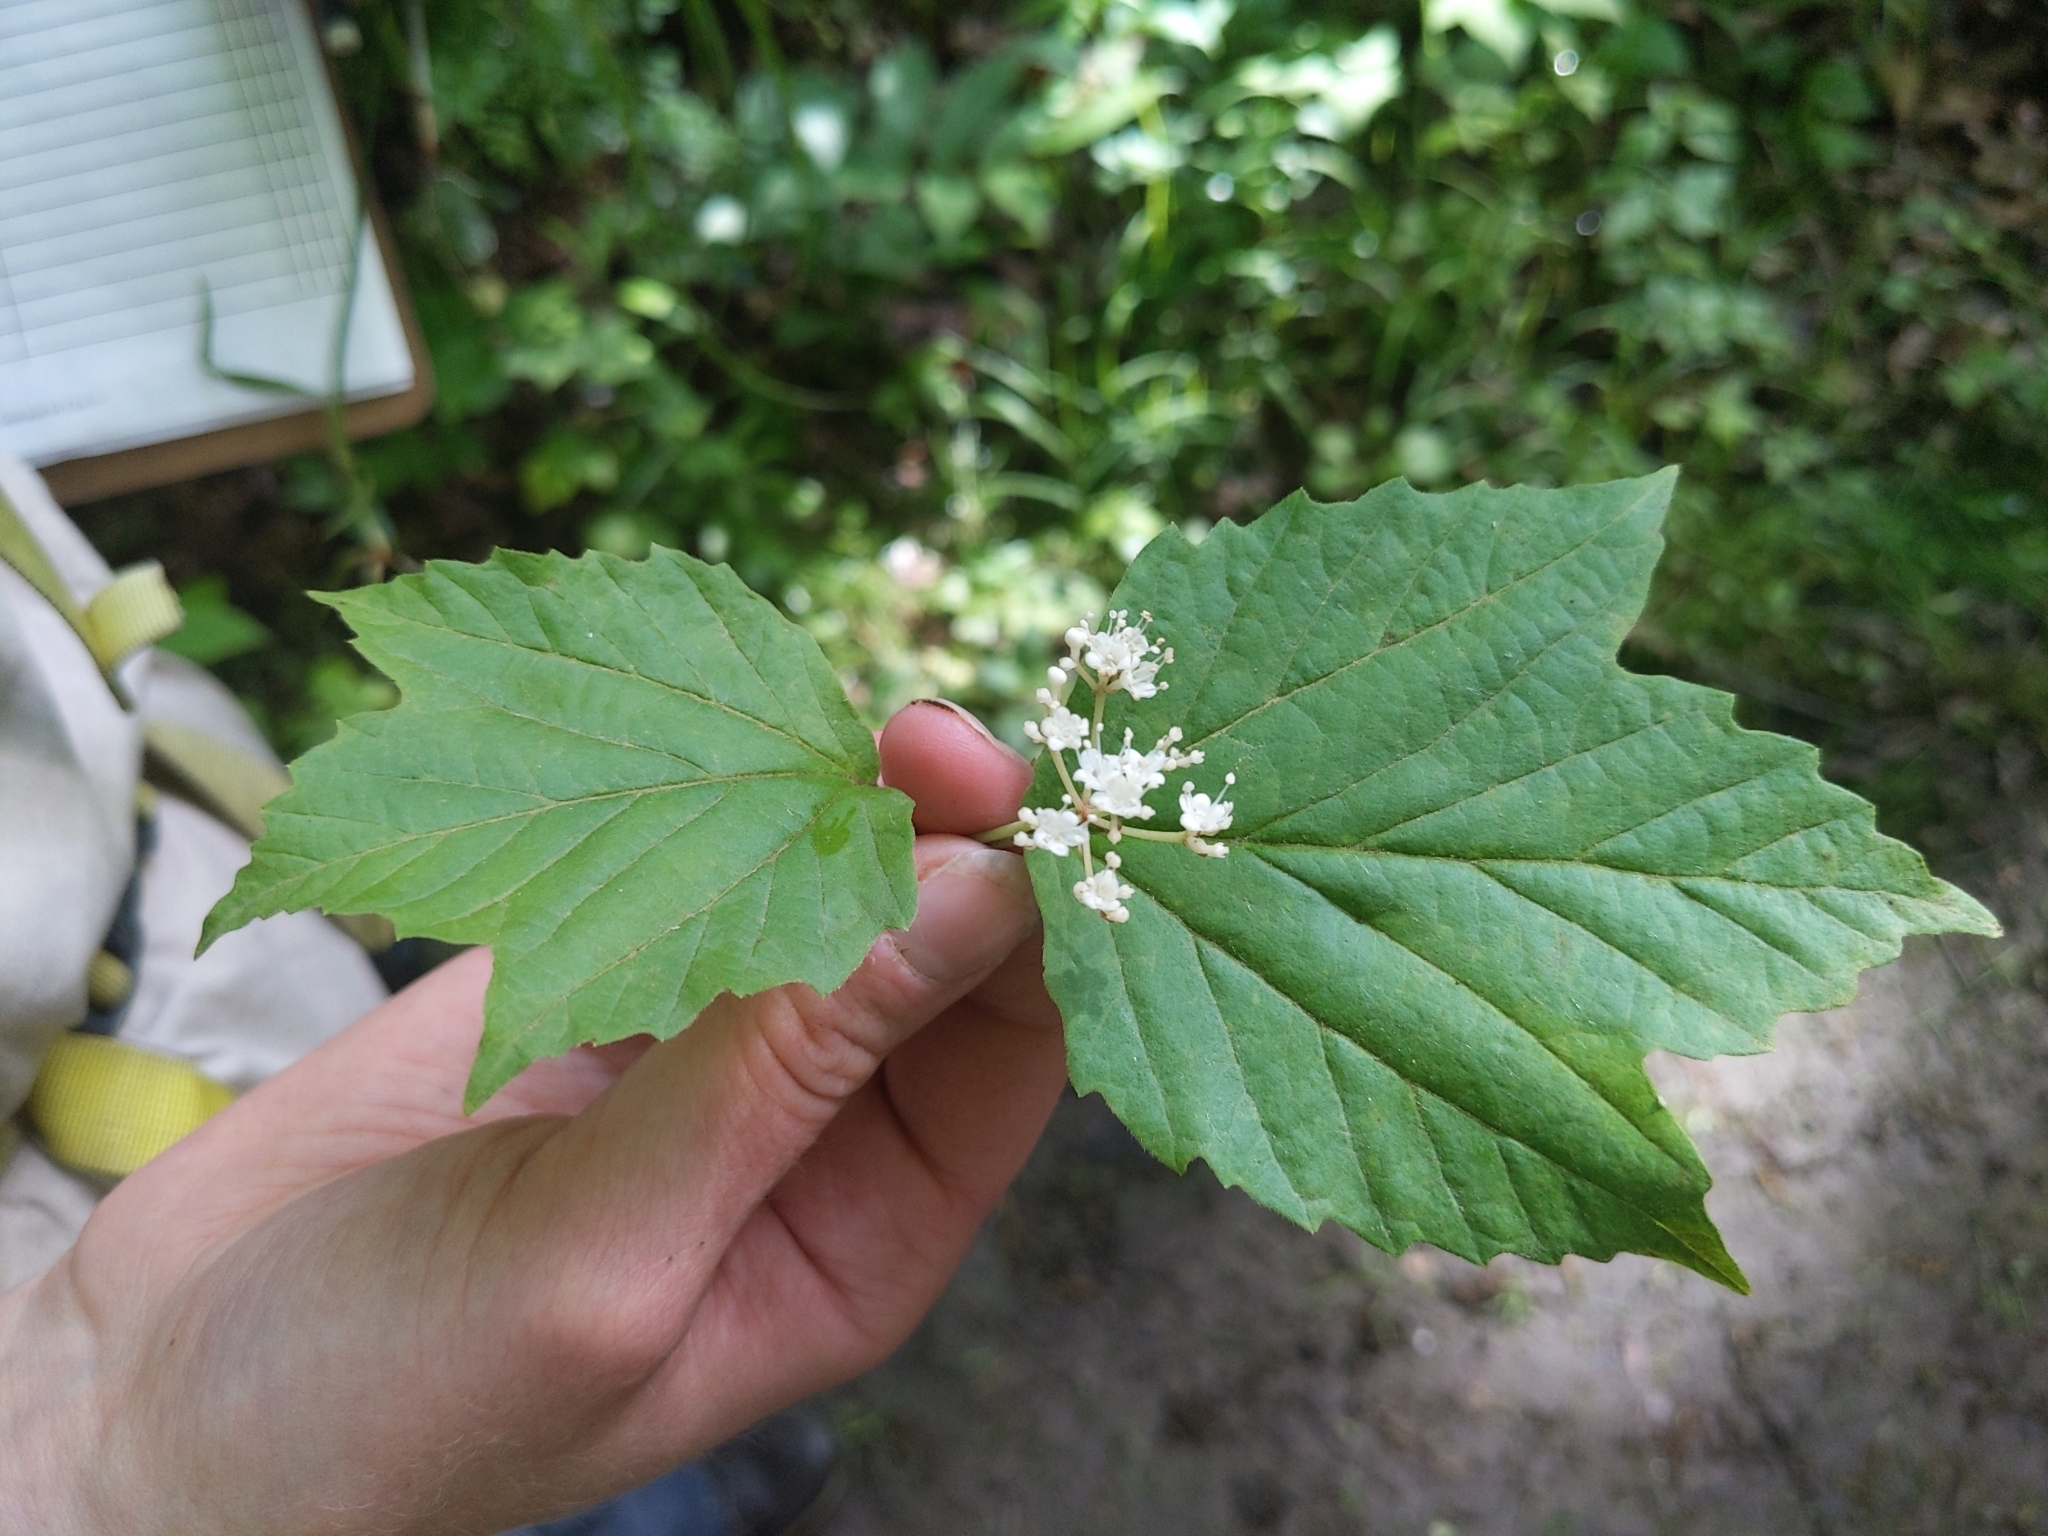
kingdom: Plantae
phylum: Tracheophyta
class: Magnoliopsida
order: Dipsacales
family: Viburnaceae
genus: Viburnum
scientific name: Viburnum acerifolium
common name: Dockmackie
